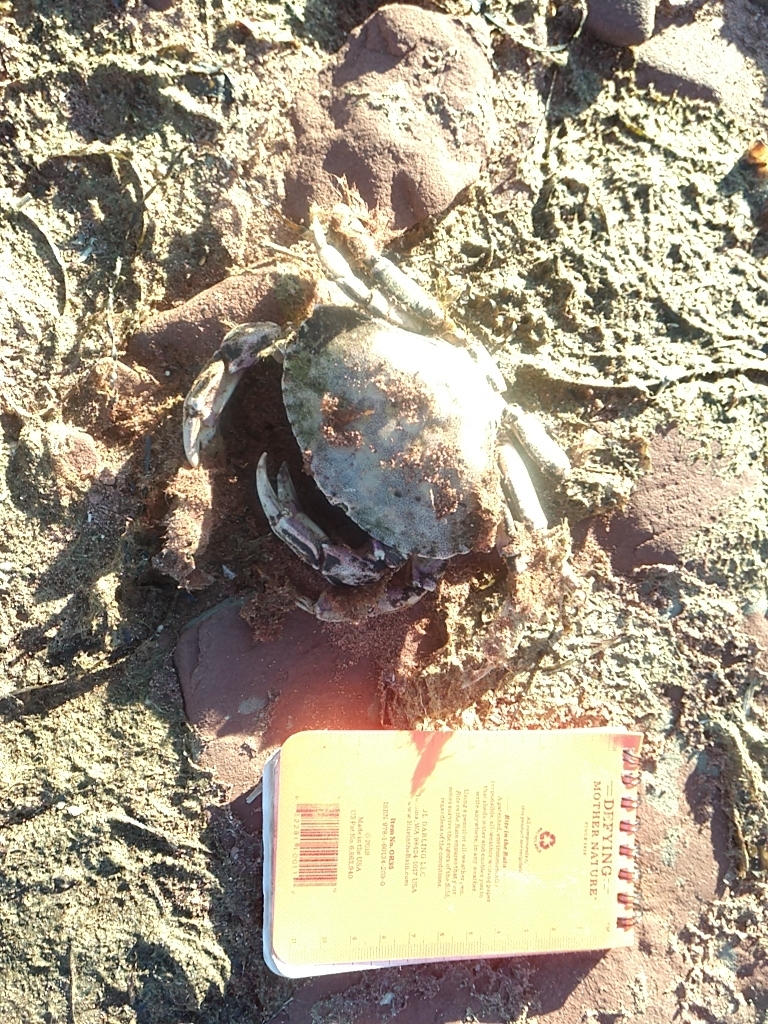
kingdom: Animalia
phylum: Arthropoda
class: Malacostraca
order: Decapoda
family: Cancridae
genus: Cancer
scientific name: Cancer irroratus
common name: Atlantic rock crab
